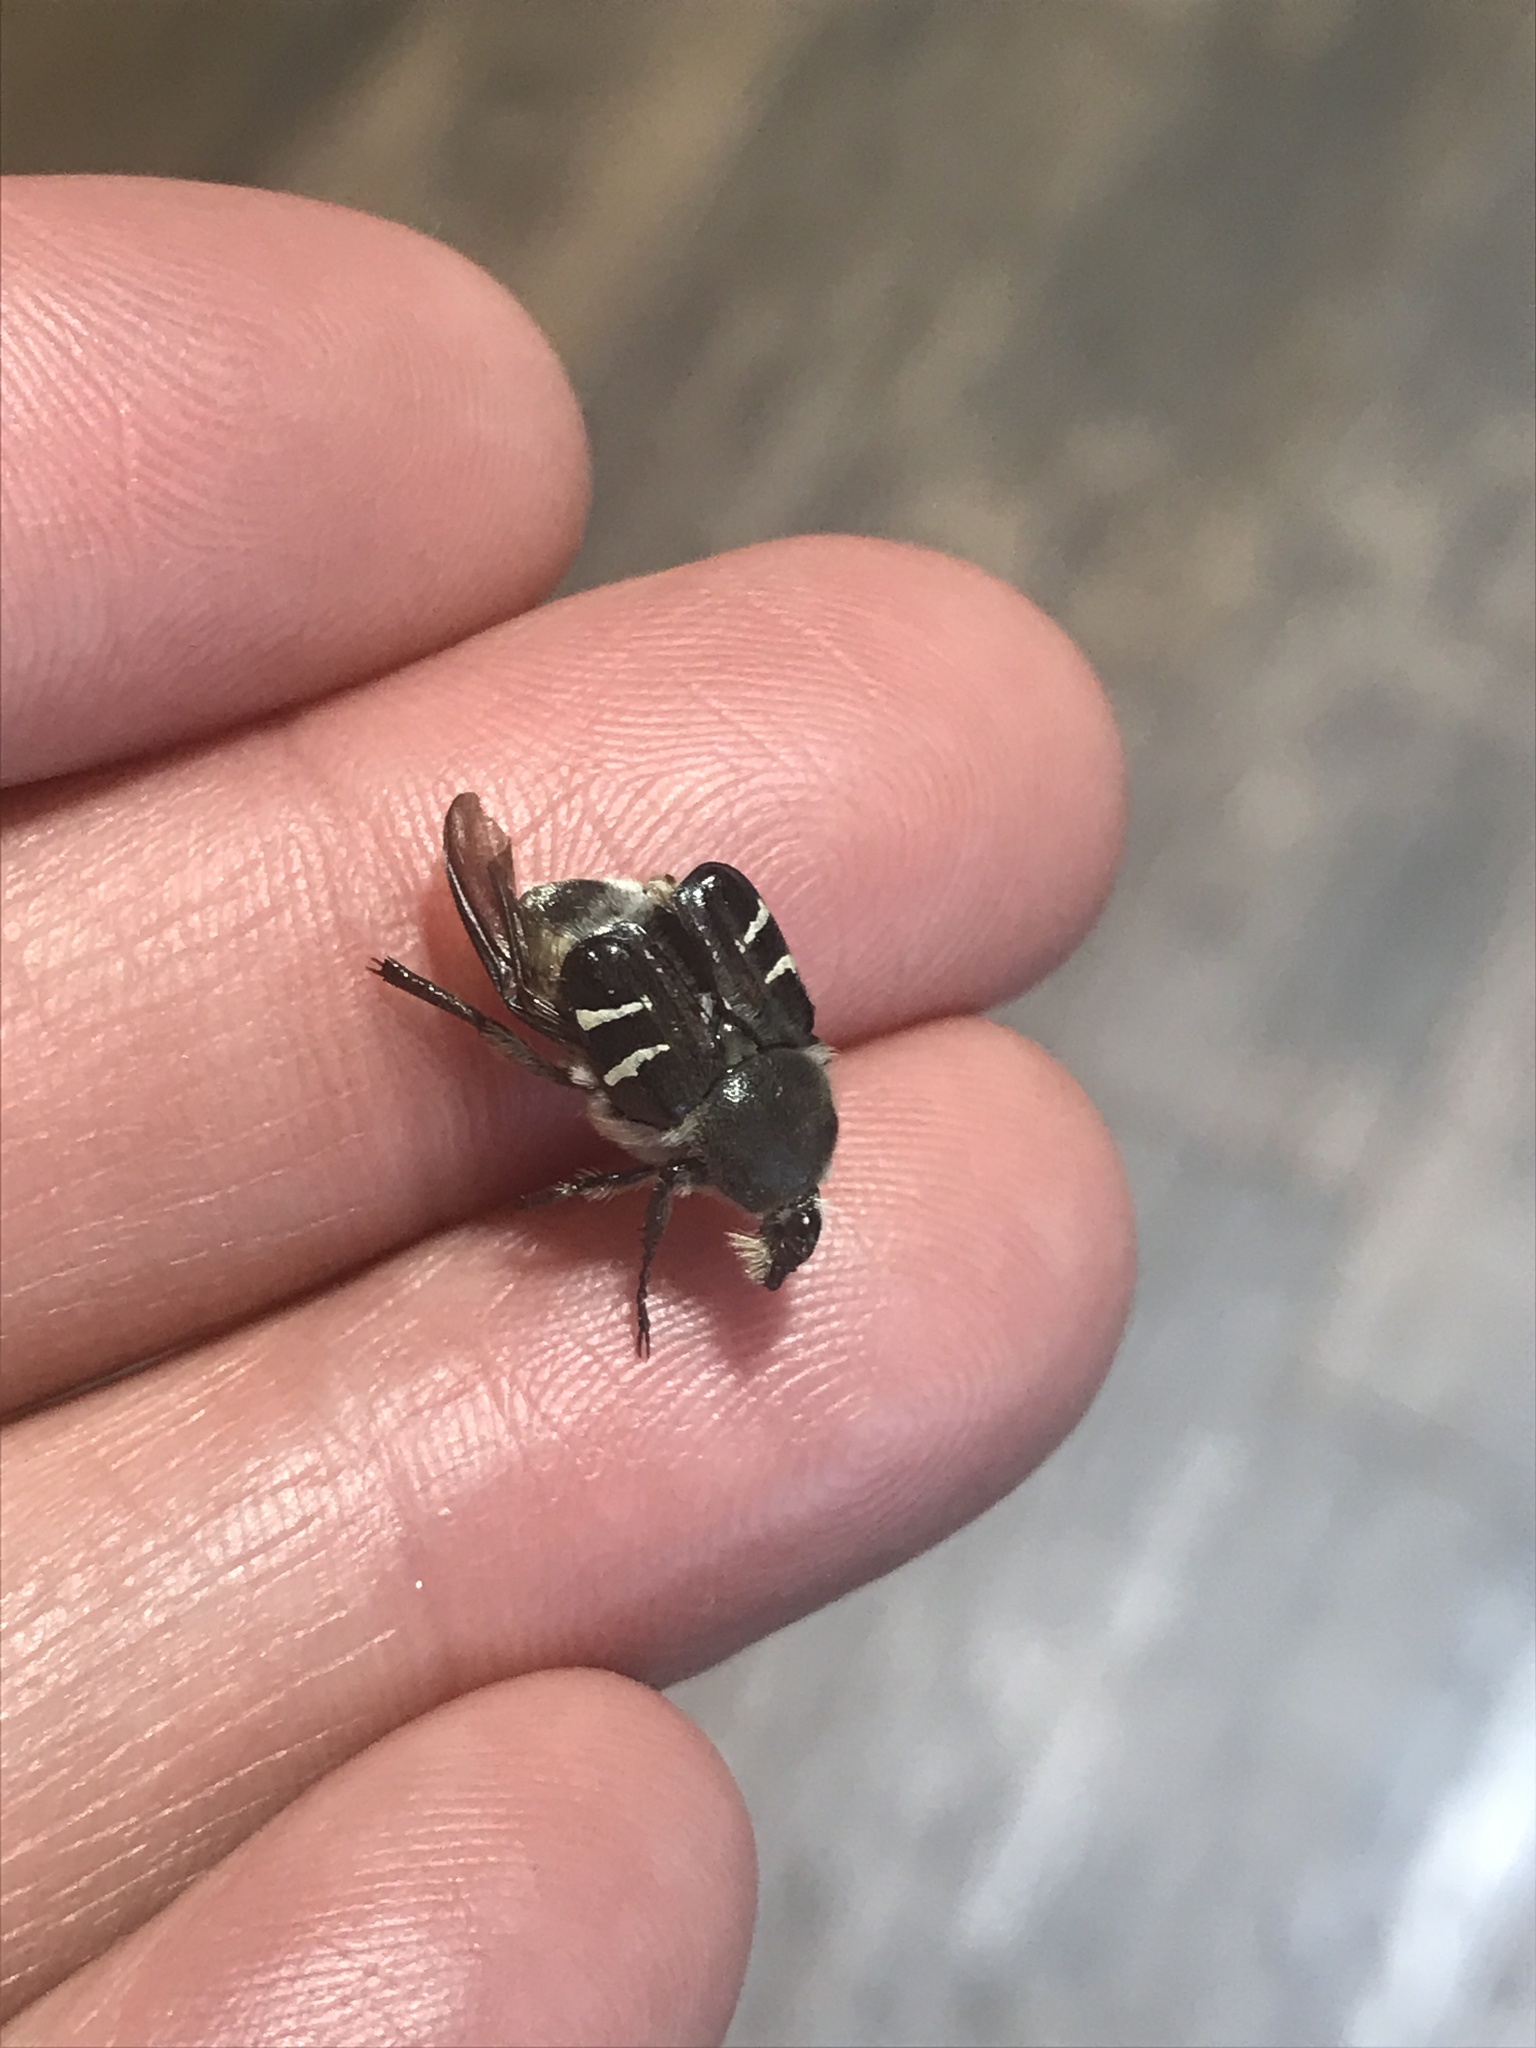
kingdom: Animalia
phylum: Arthropoda
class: Insecta
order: Coleoptera
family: Scarabaeidae
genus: Trichiotinus
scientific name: Trichiotinus texanus
